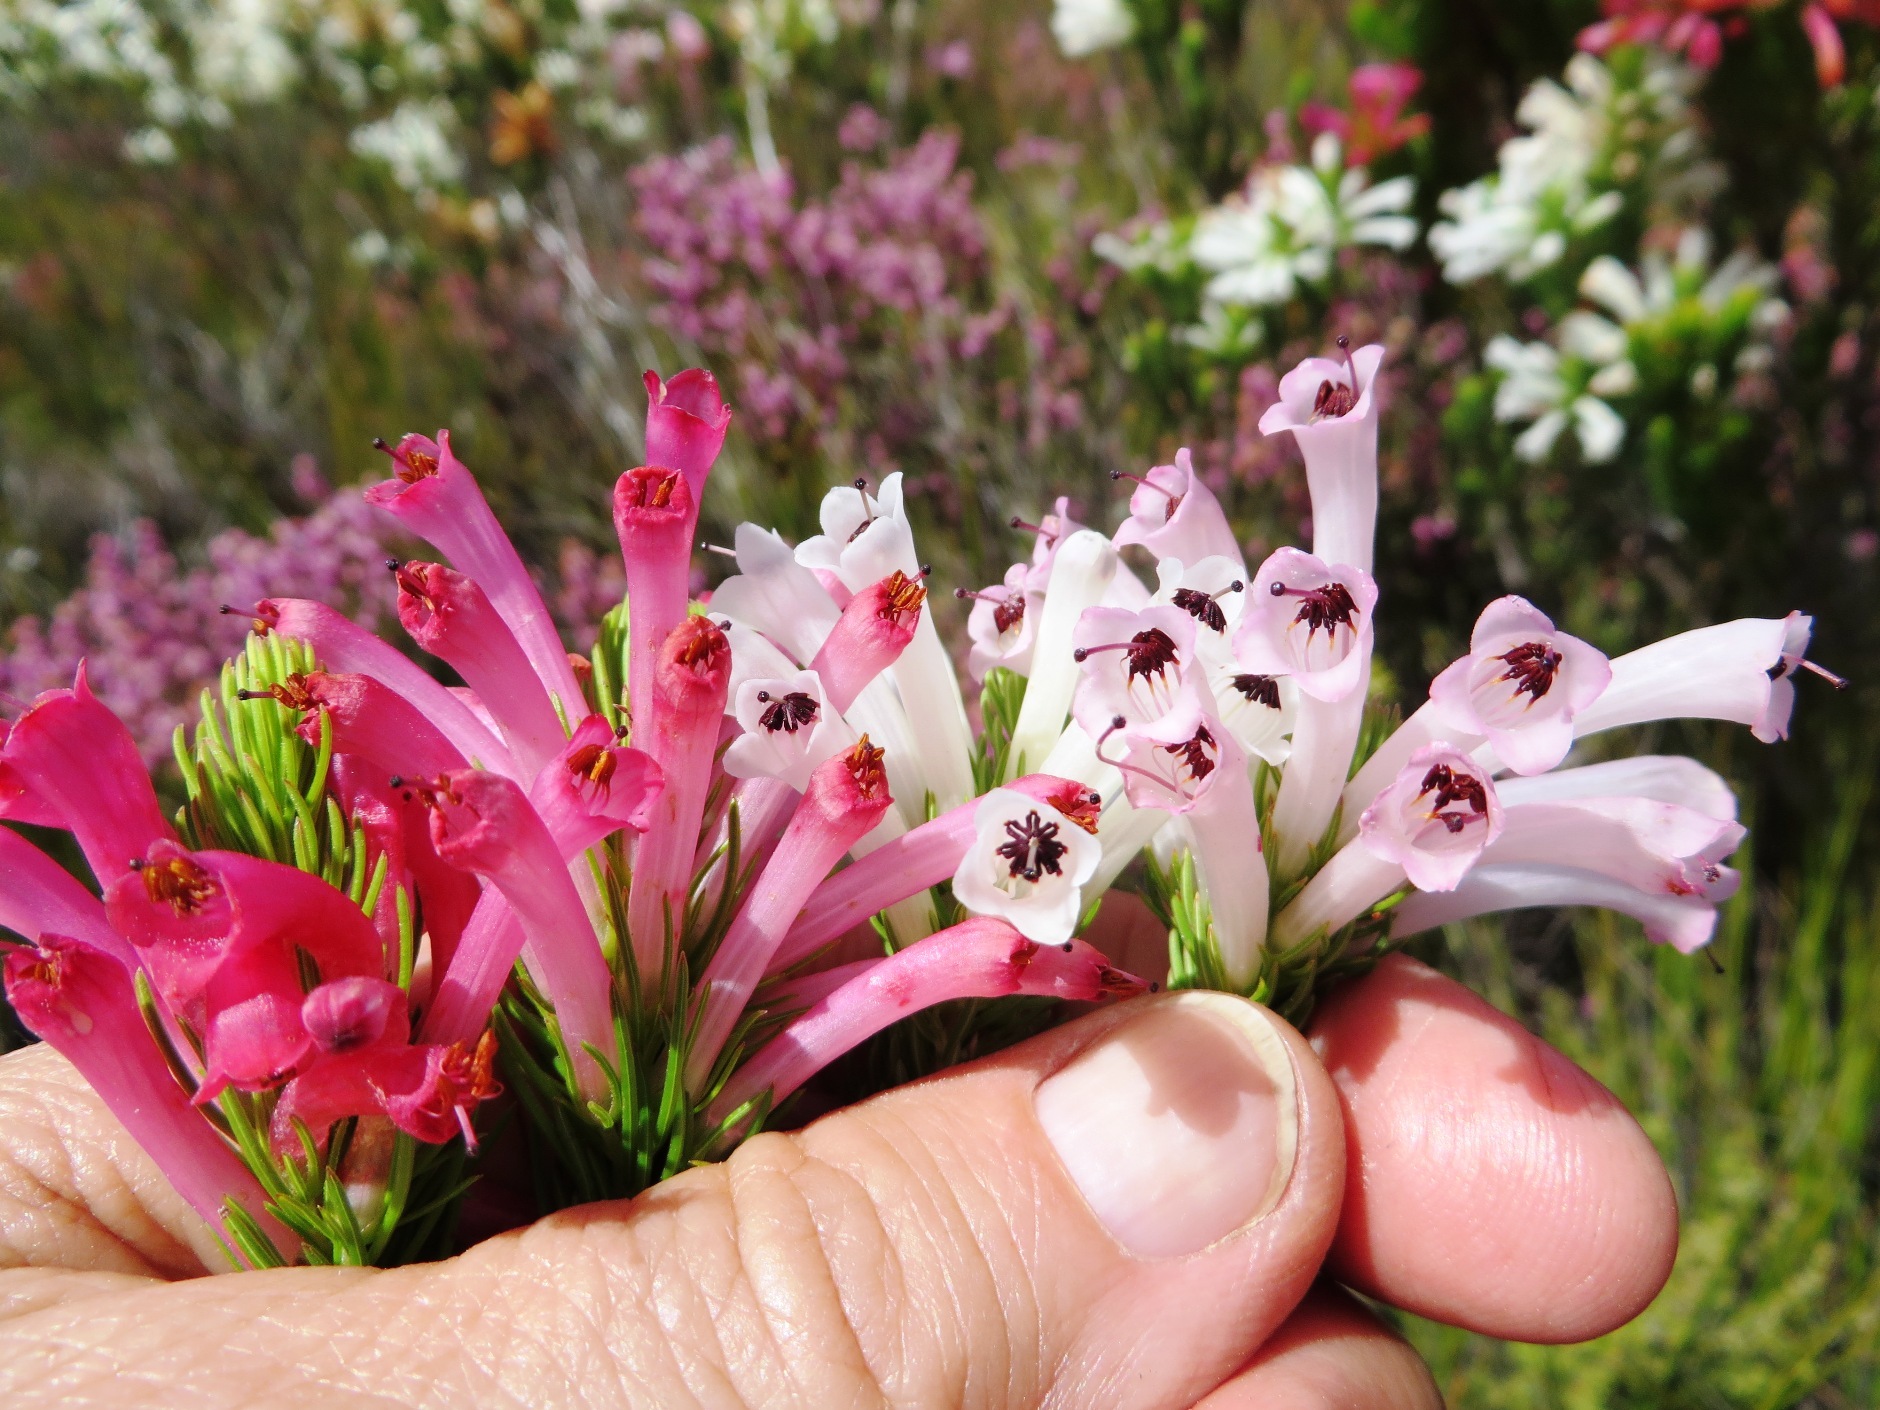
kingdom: Plantae
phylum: Tracheophyta
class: Magnoliopsida
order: Ericales
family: Ericaceae
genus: Erica
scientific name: Erica pinea
